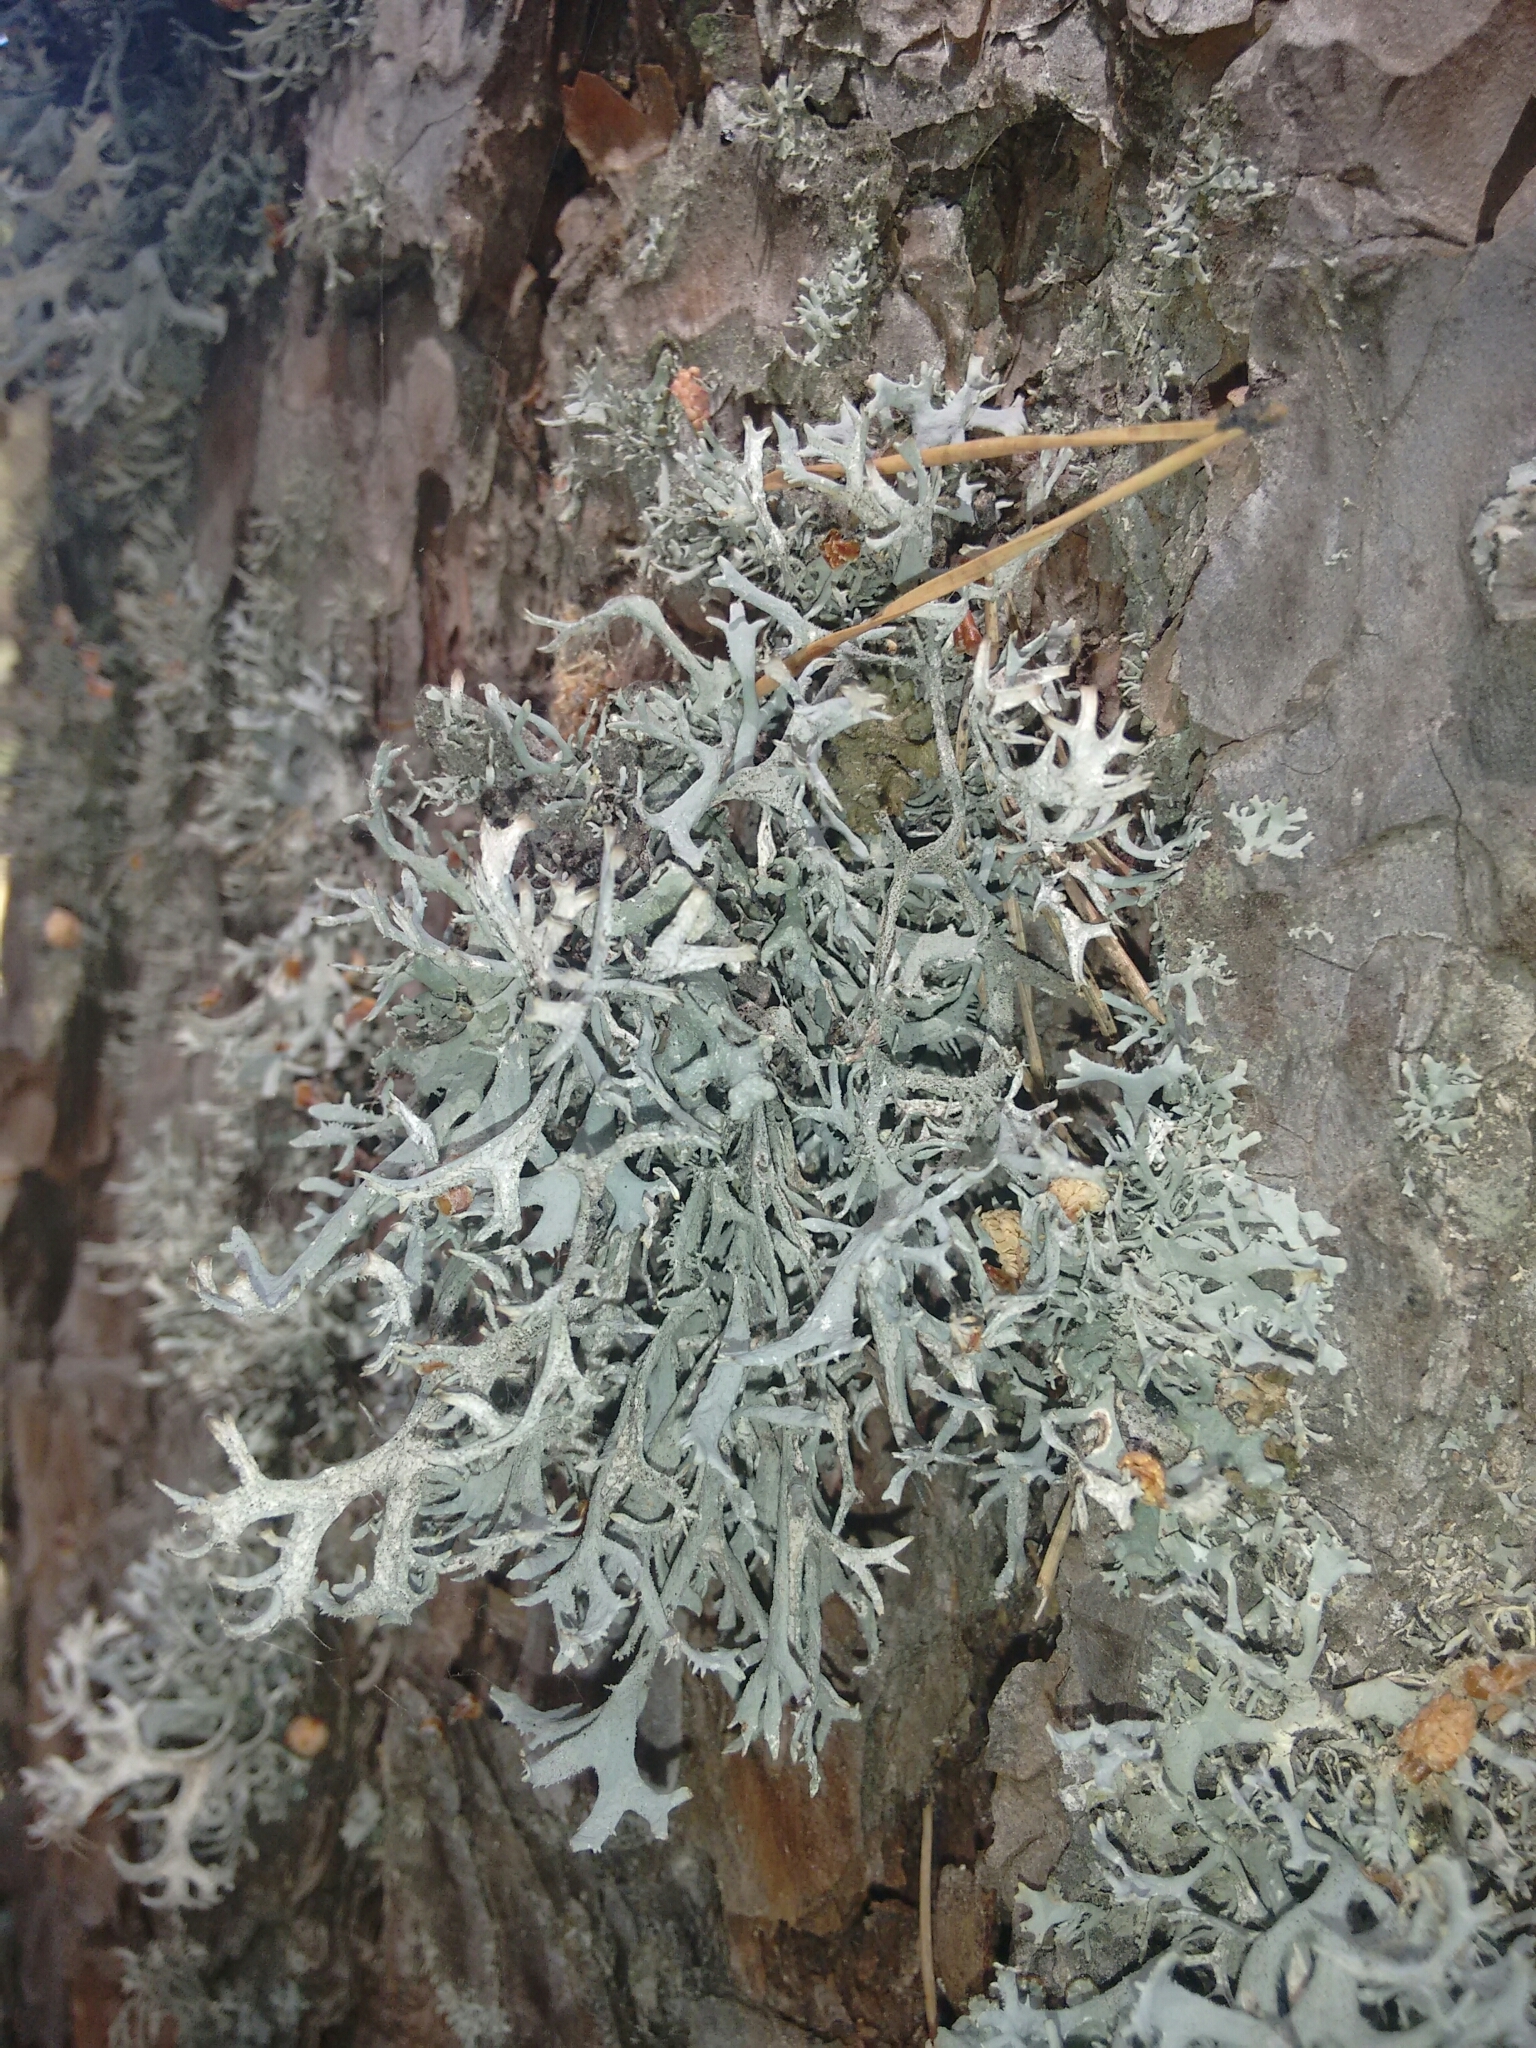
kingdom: Fungi
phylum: Ascomycota
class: Lecanoromycetes
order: Lecanorales
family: Parmeliaceae
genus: Pseudevernia
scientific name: Pseudevernia furfuracea
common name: Tree moss
